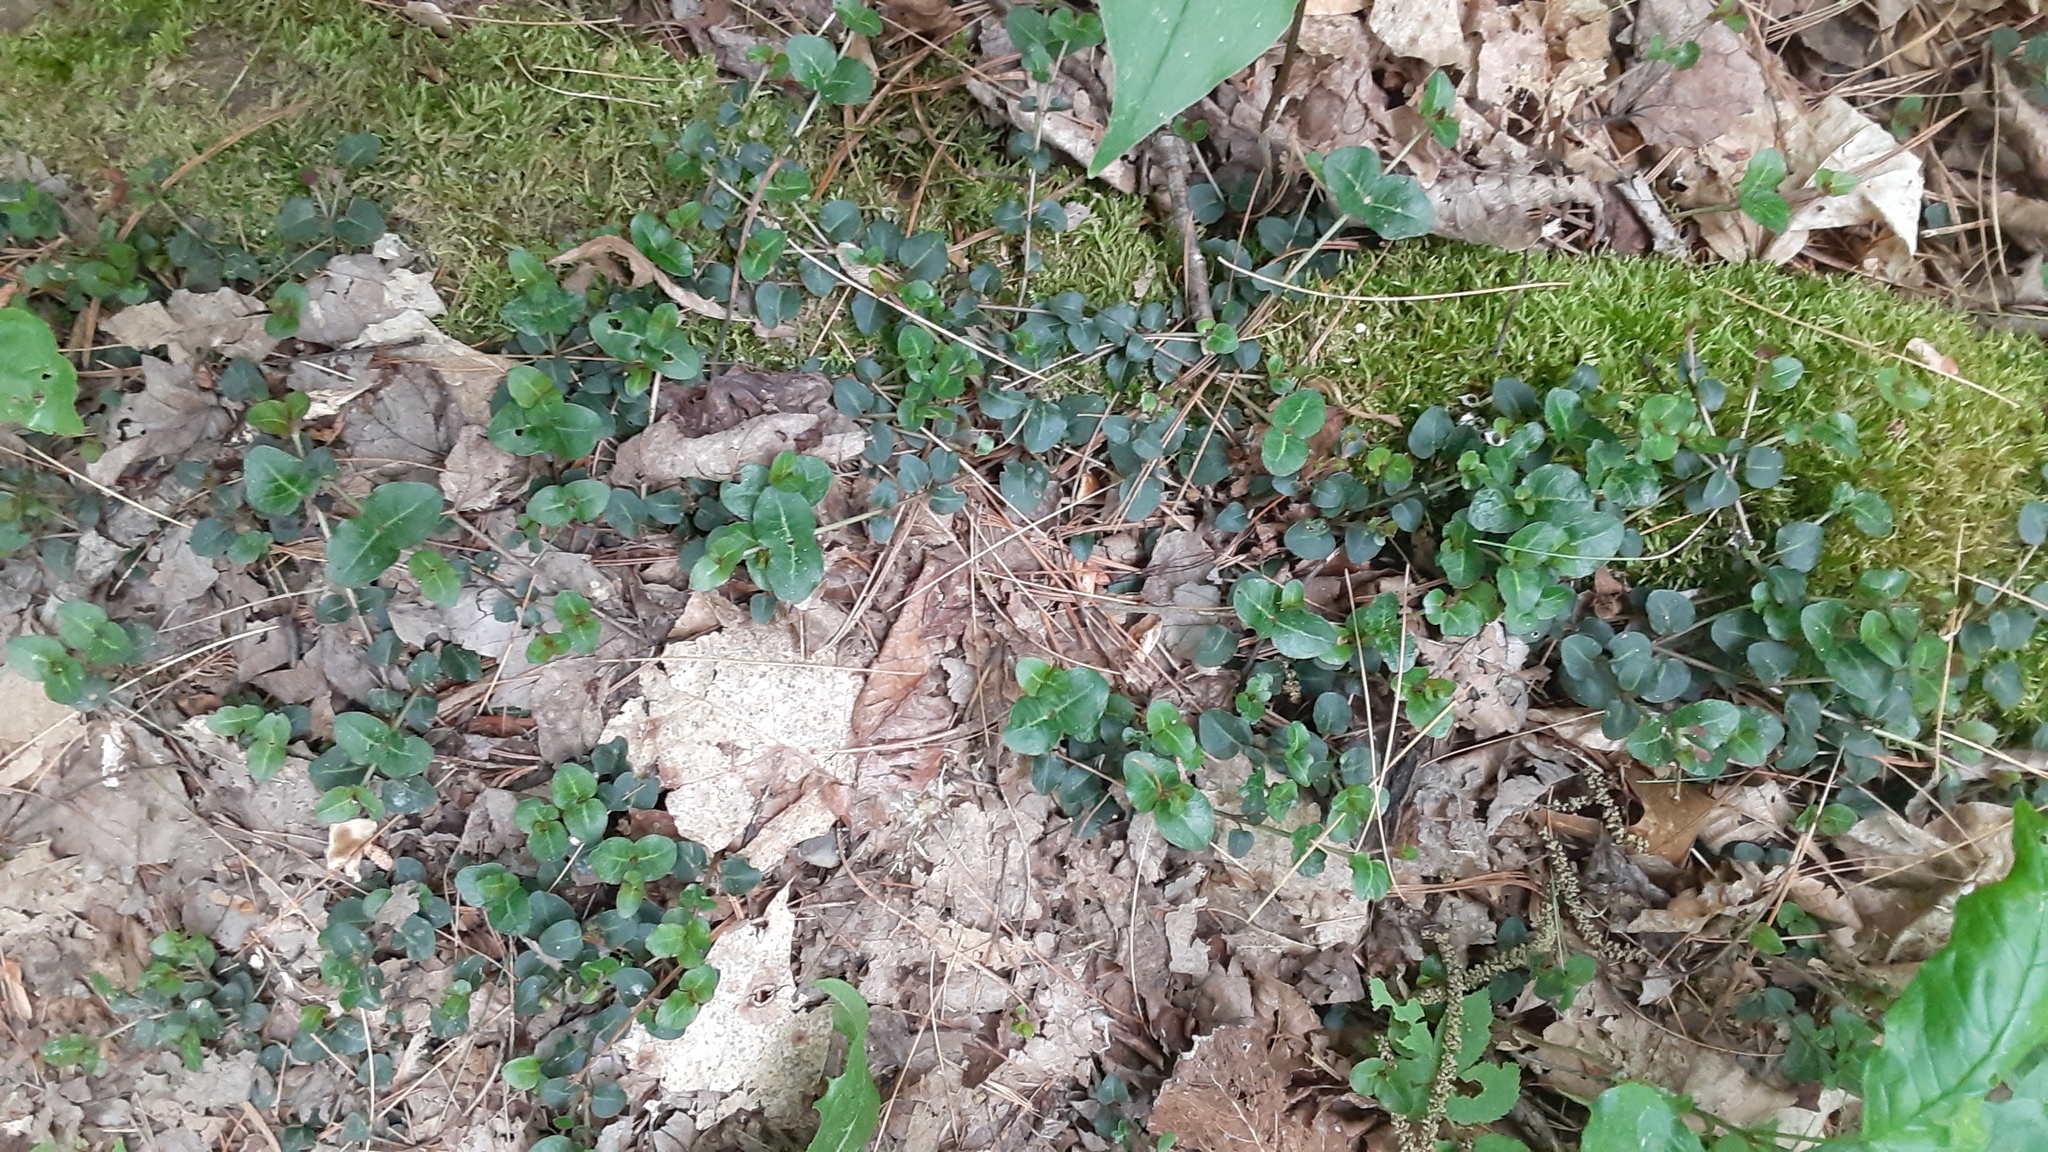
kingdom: Plantae
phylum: Tracheophyta
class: Magnoliopsida
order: Gentianales
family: Rubiaceae
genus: Mitchella
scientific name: Mitchella repens
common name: Partridge-berry
